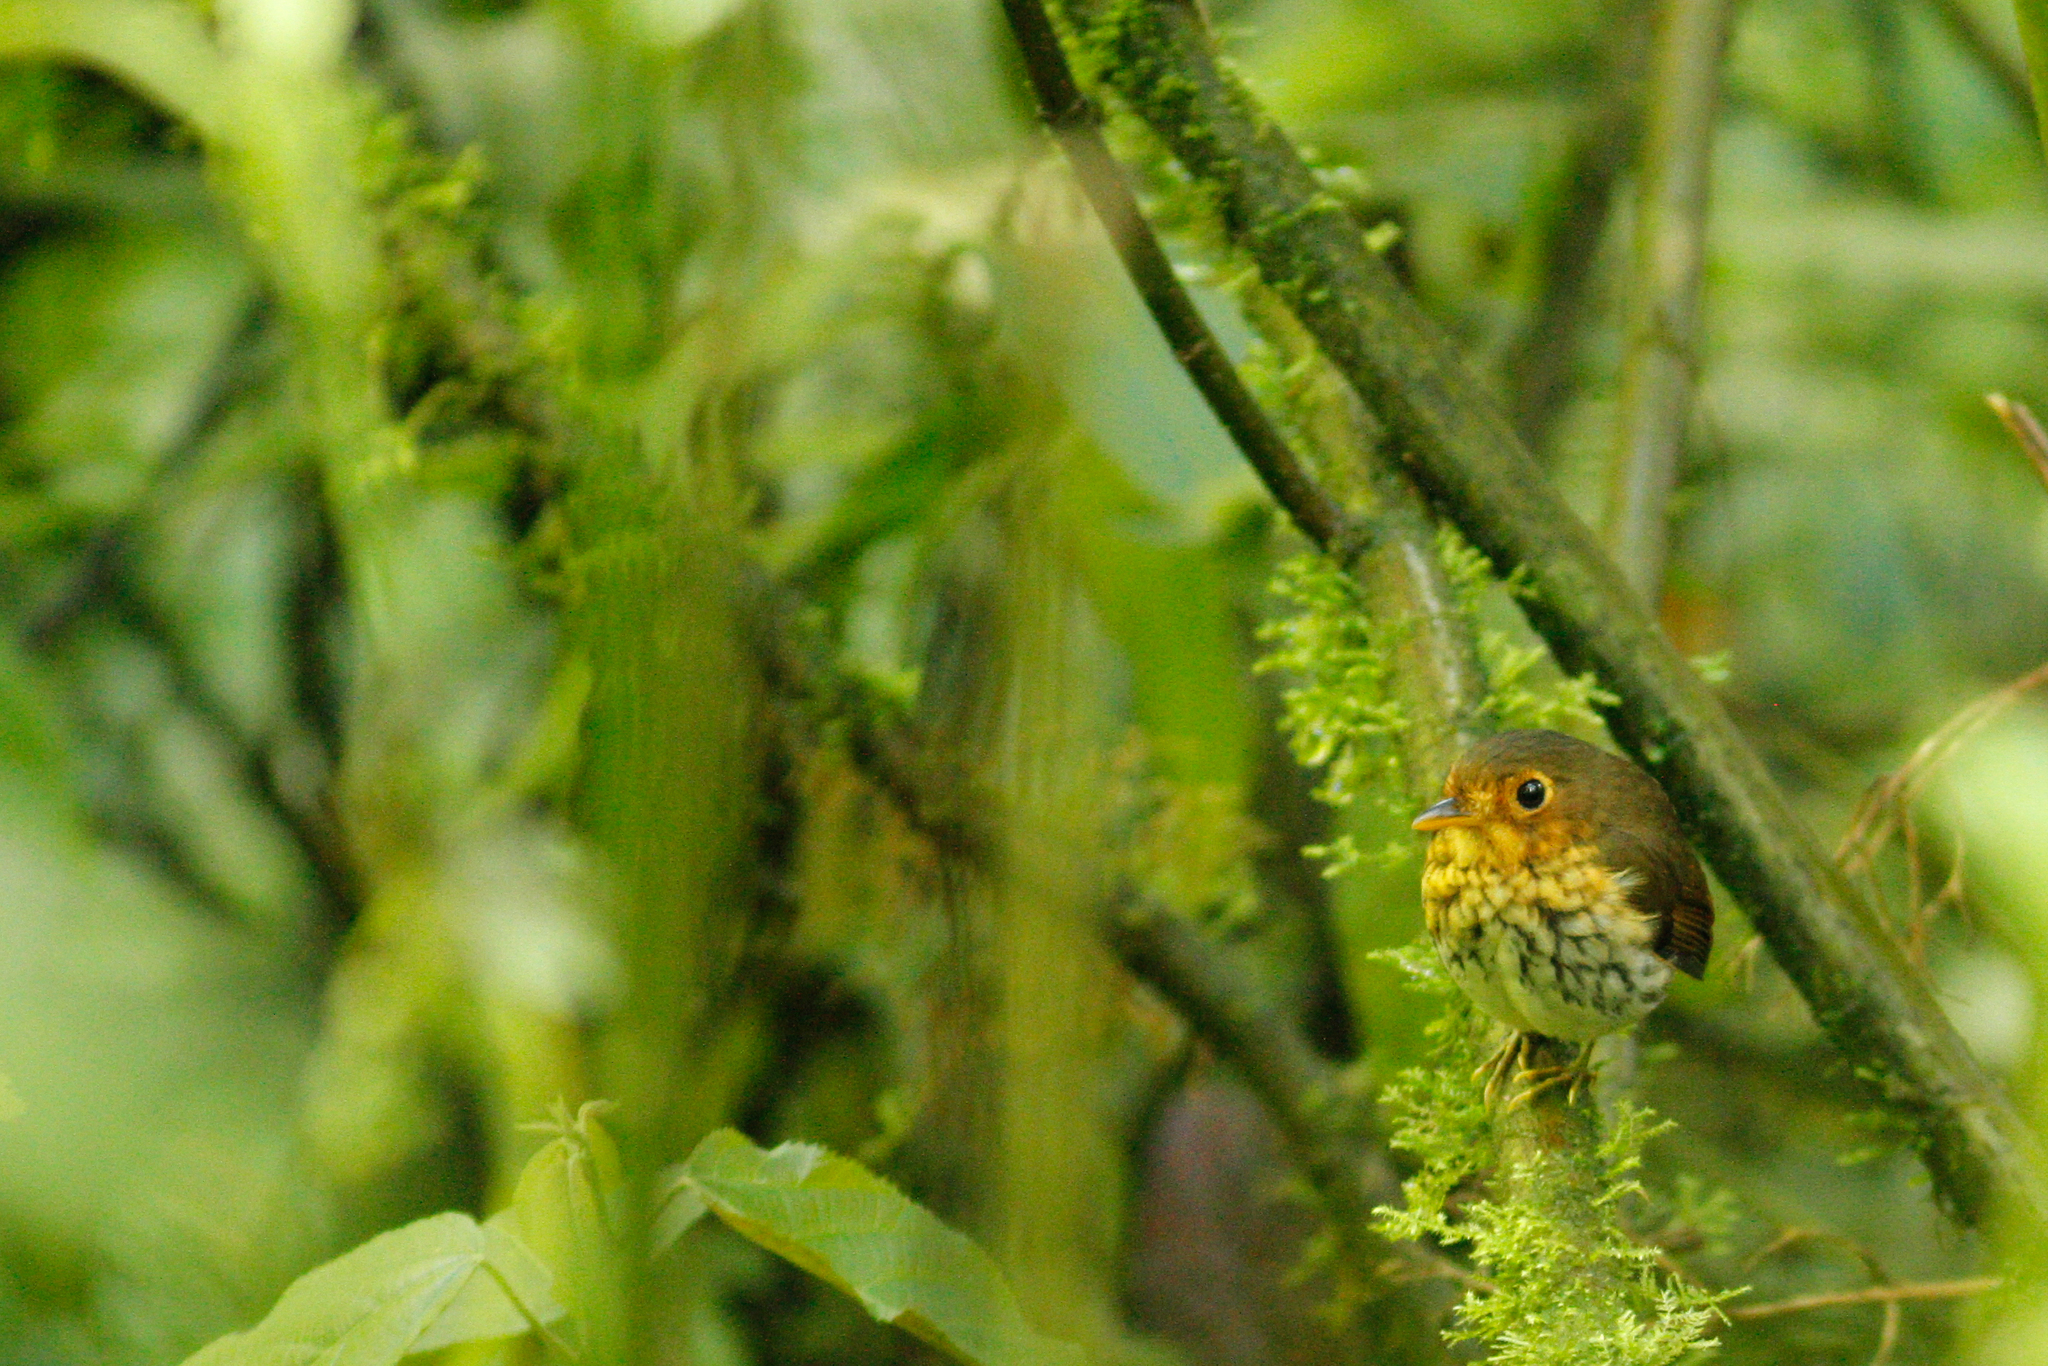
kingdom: Animalia
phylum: Chordata
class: Aves
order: Passeriformes
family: Grallariidae
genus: Grallaricula
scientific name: Grallaricula flavirostris
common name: Ochre-breasted antpitta
